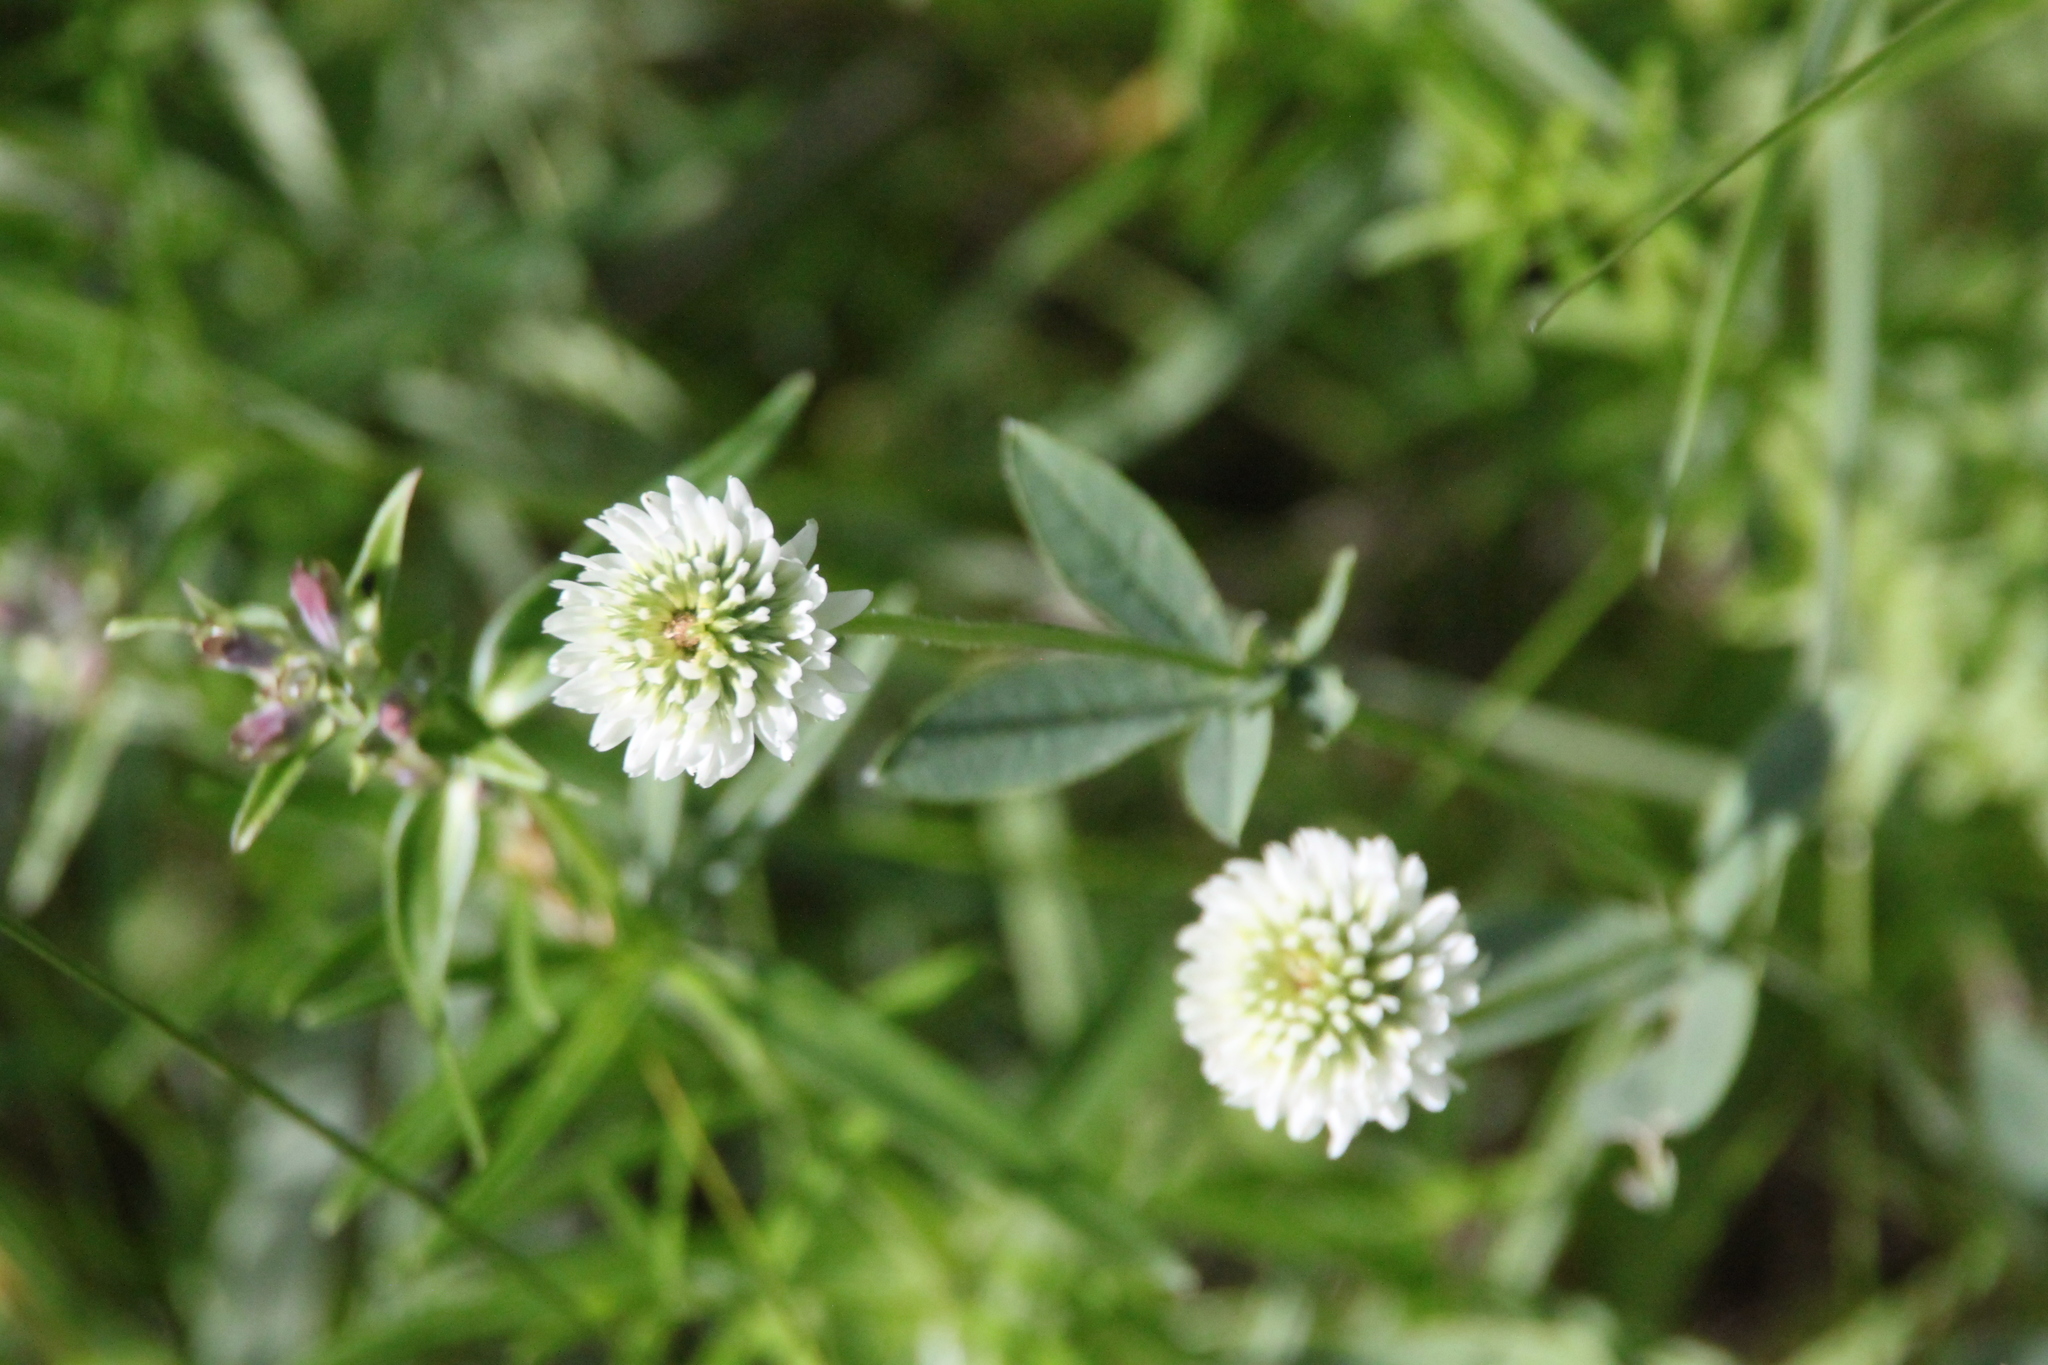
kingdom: Plantae
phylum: Tracheophyta
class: Magnoliopsida
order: Fabales
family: Fabaceae
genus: Trifolium
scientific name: Trifolium montanum
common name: Mountain clover
